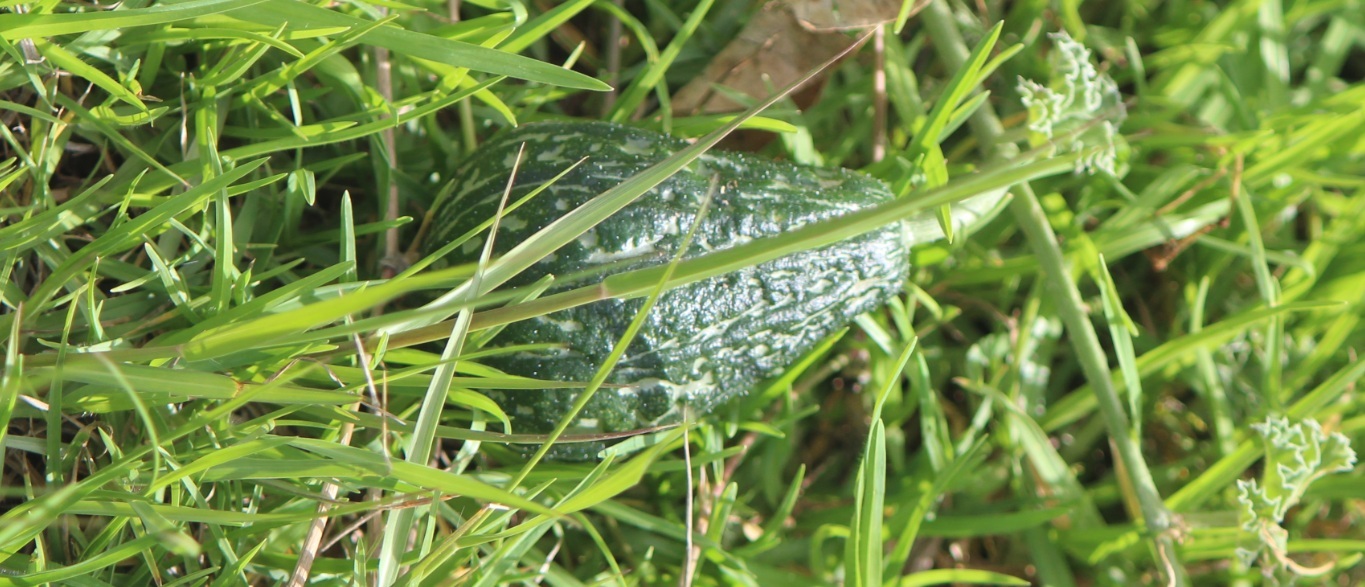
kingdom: Plantae
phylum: Tracheophyta
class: Magnoliopsida
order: Cucurbitales
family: Cucurbitaceae
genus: Schizocarpum
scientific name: Schizocarpum parviflorum
